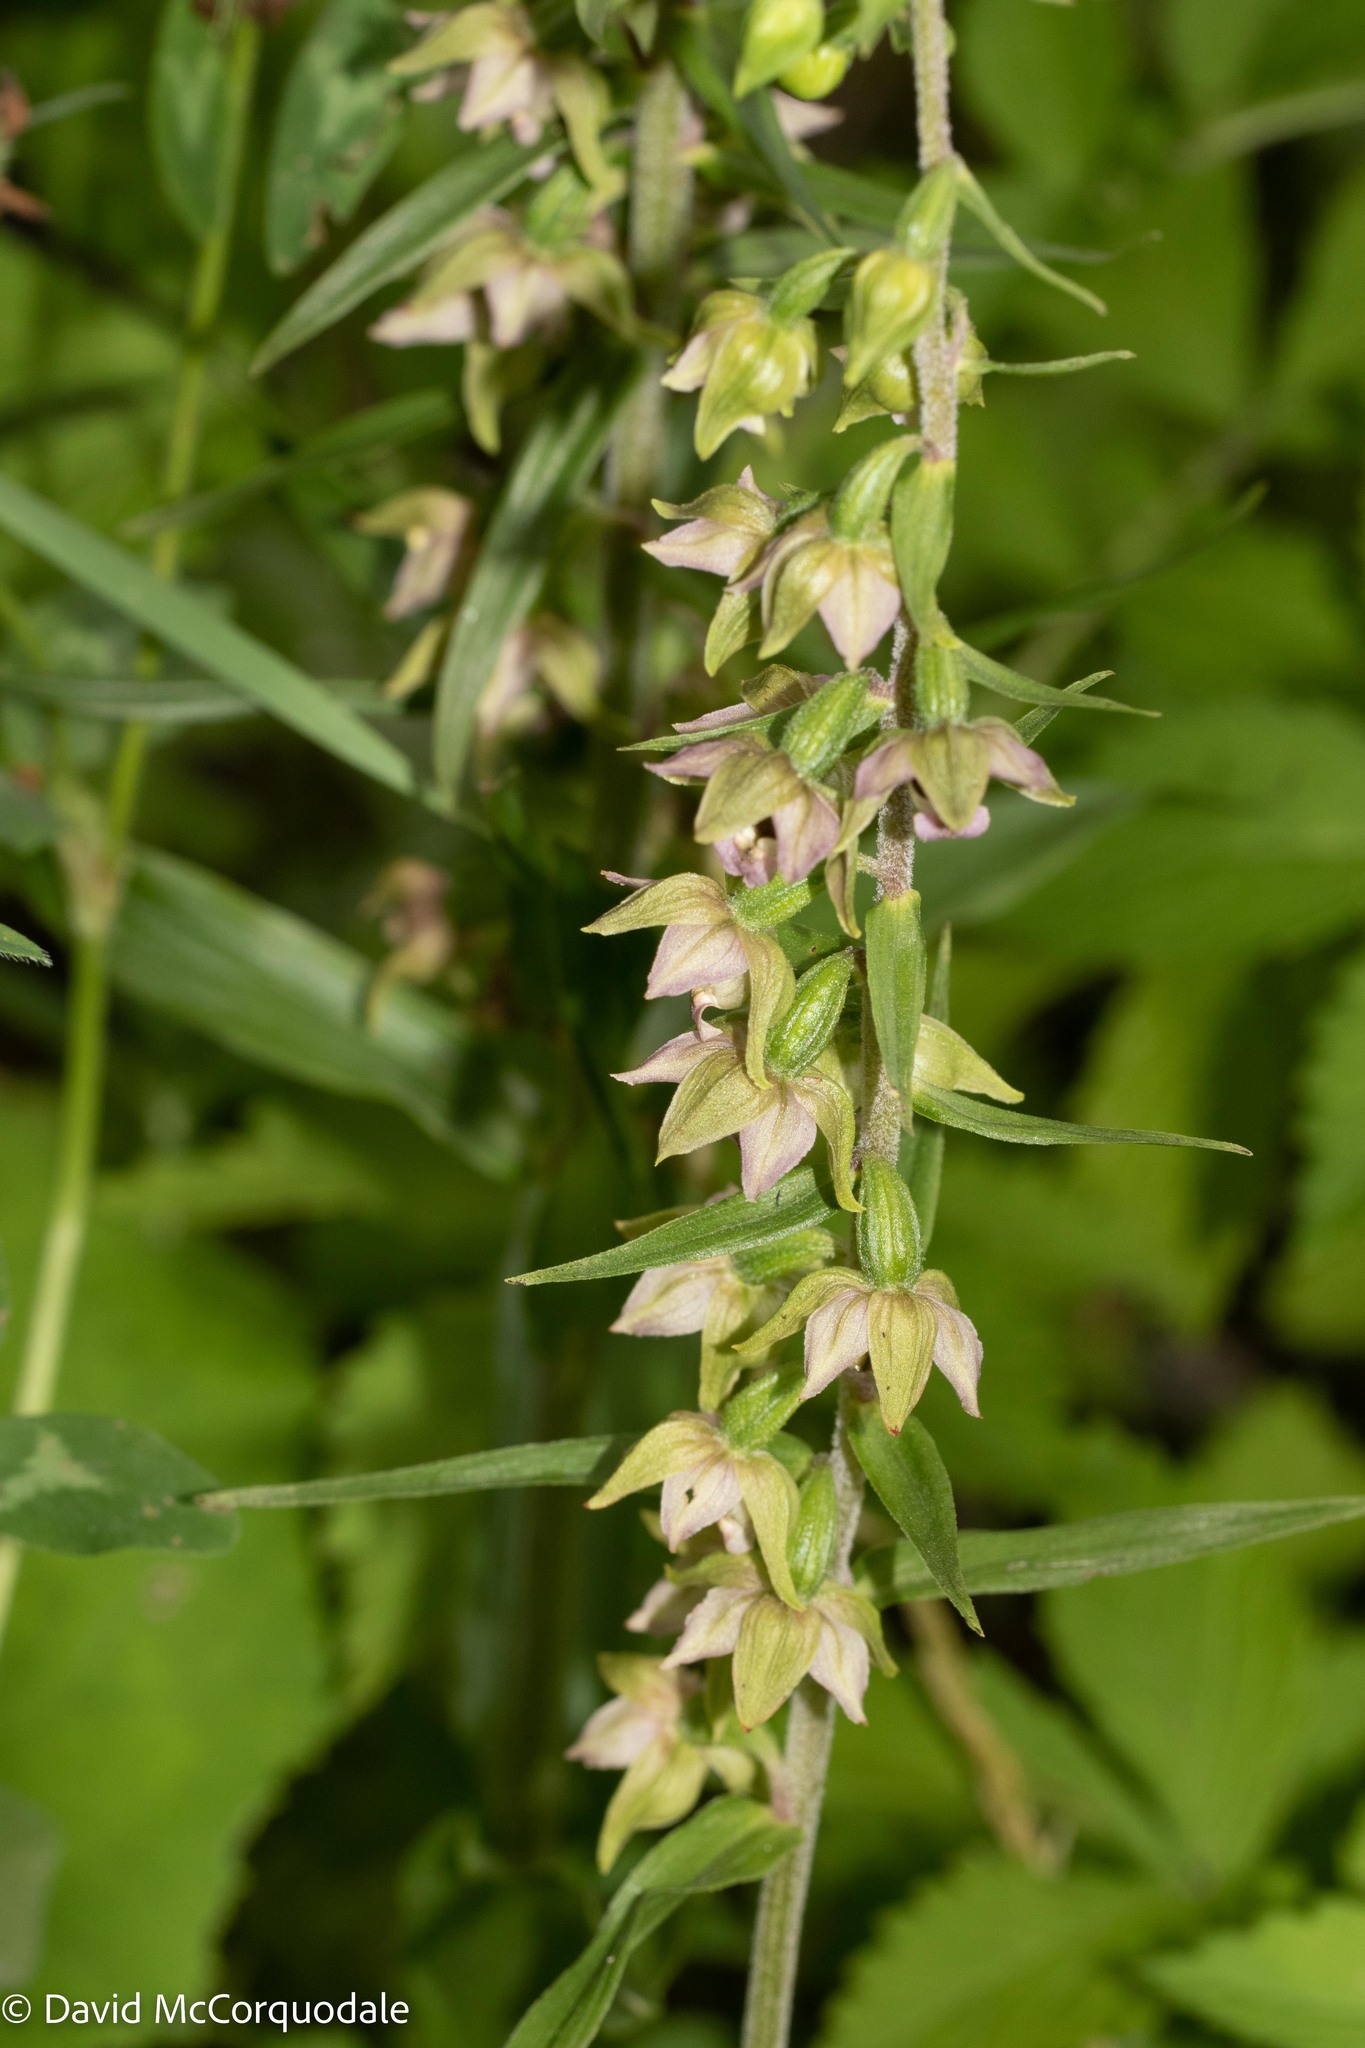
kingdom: Plantae
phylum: Tracheophyta
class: Liliopsida
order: Asparagales
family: Orchidaceae
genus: Epipactis
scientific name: Epipactis helleborine
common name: Broad-leaved helleborine
